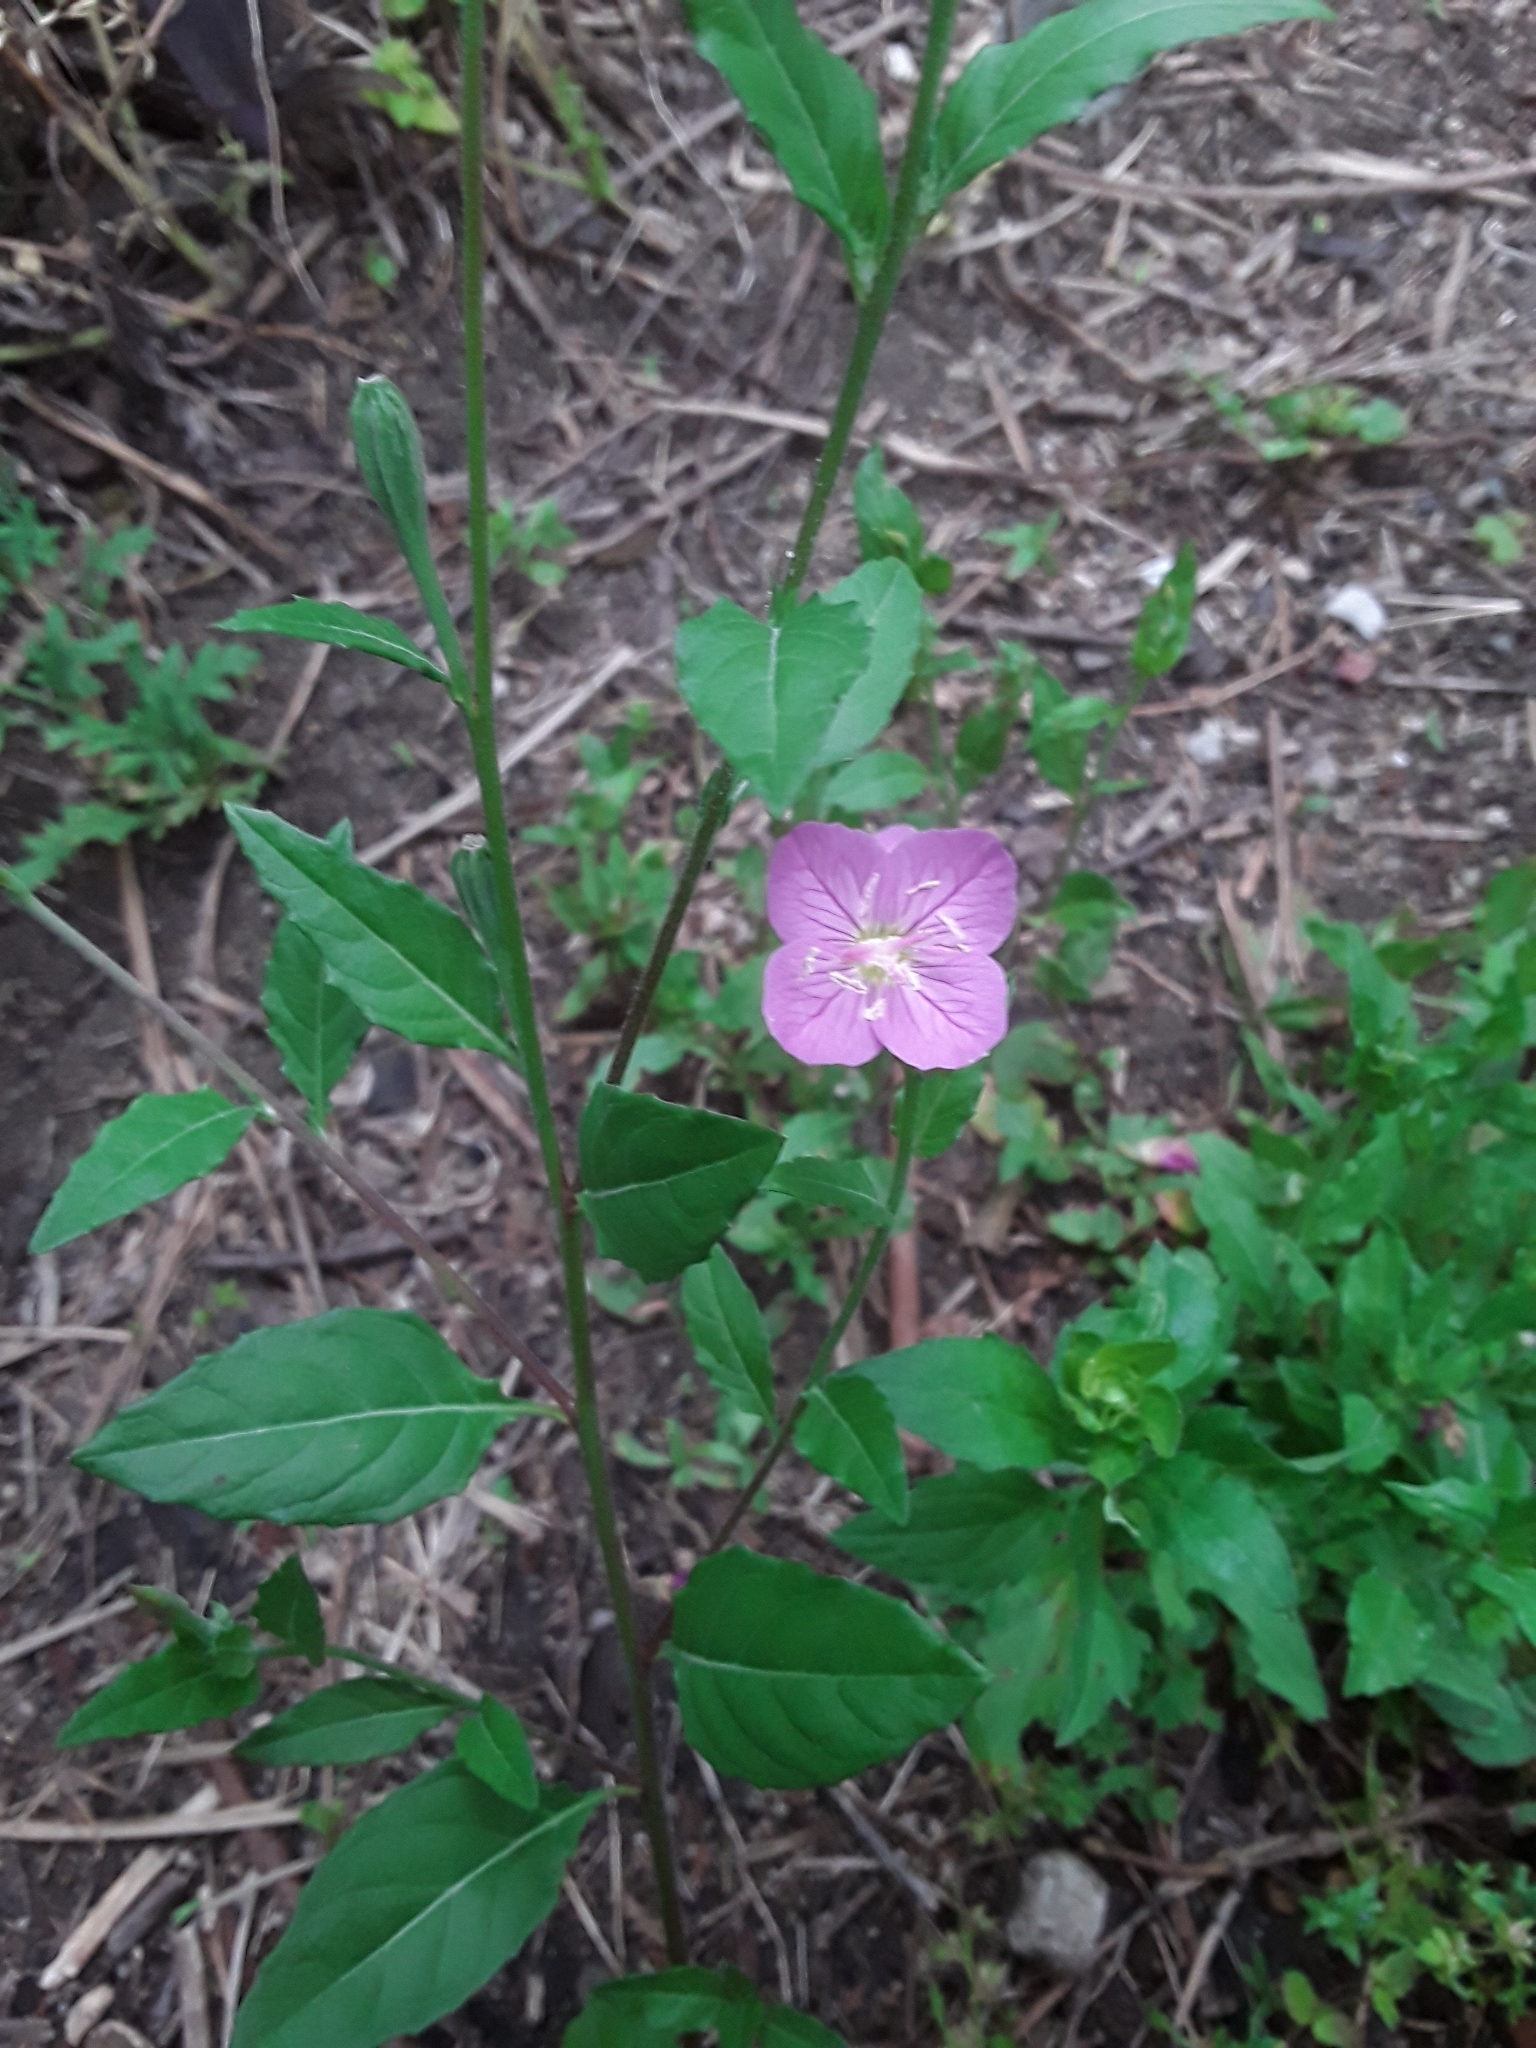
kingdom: Plantae
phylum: Tracheophyta
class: Magnoliopsida
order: Myrtales
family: Onagraceae
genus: Oenothera
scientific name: Oenothera rosea
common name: Rosy evening-primrose
